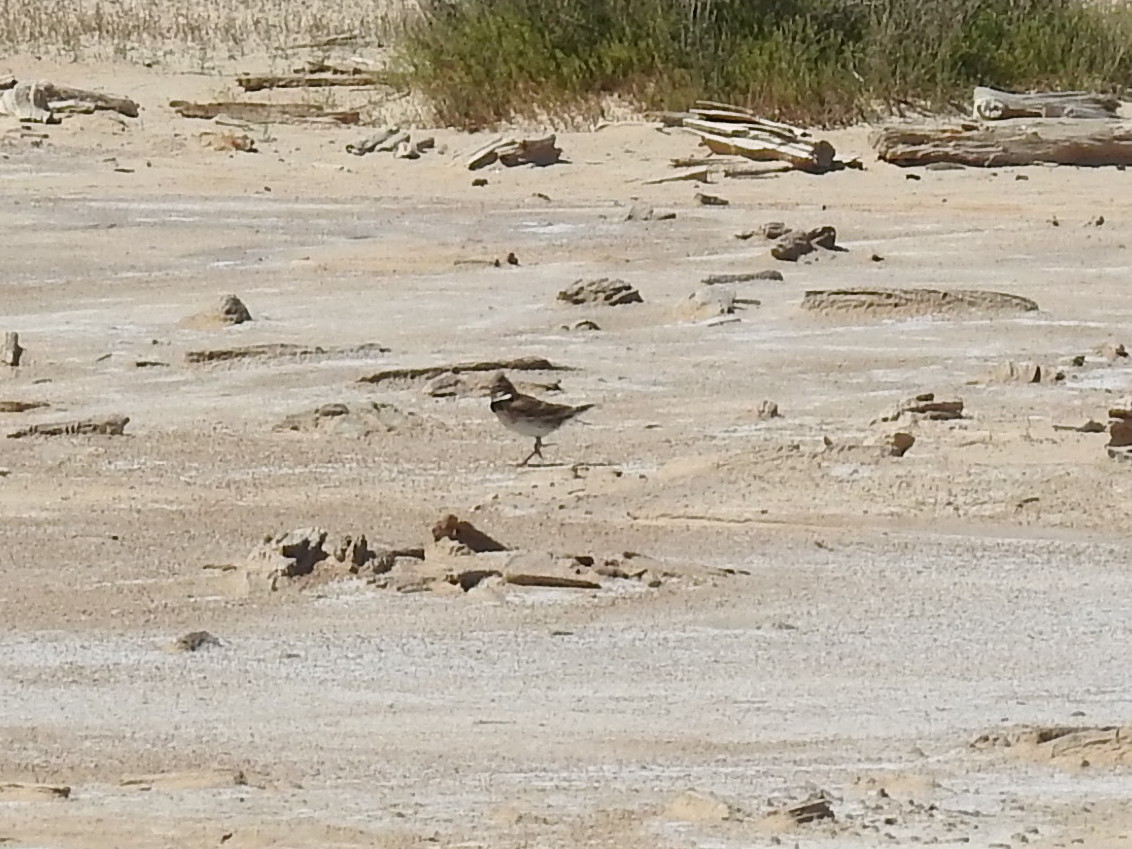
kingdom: Animalia
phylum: Chordata
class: Aves
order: Passeriformes
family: Alaudidae
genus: Melanocorypha
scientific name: Melanocorypha calandra
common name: Calandra lark
